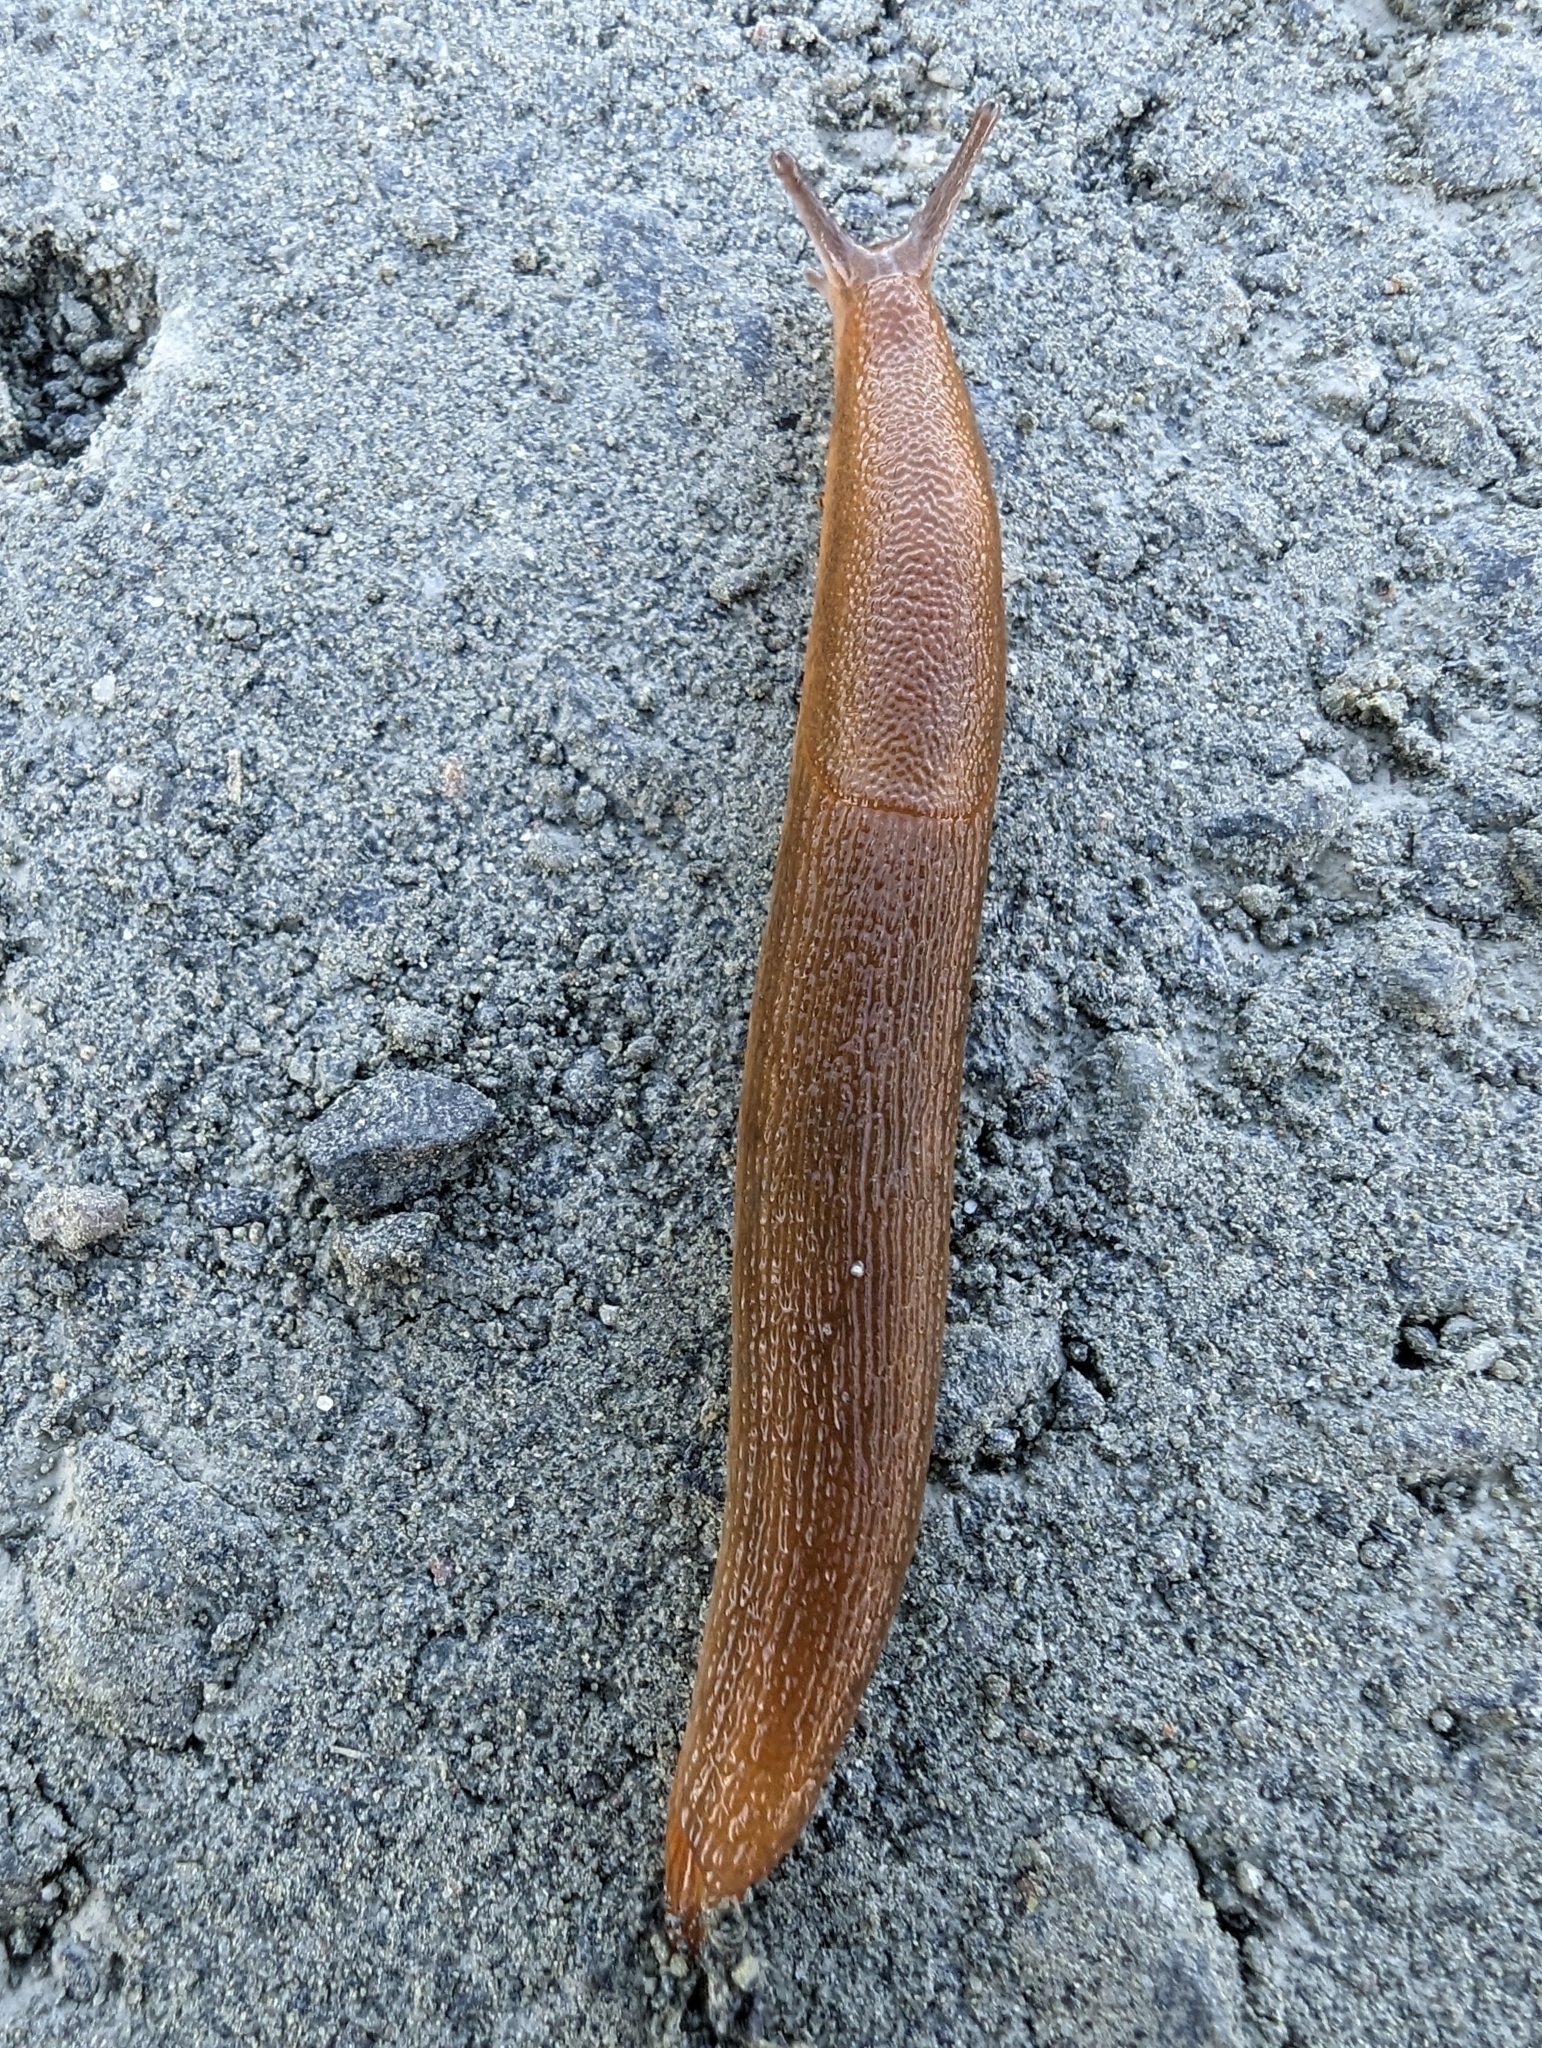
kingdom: Animalia
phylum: Mollusca
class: Gastropoda
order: Stylommatophora
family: Arionidae
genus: Arion
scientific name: Arion
